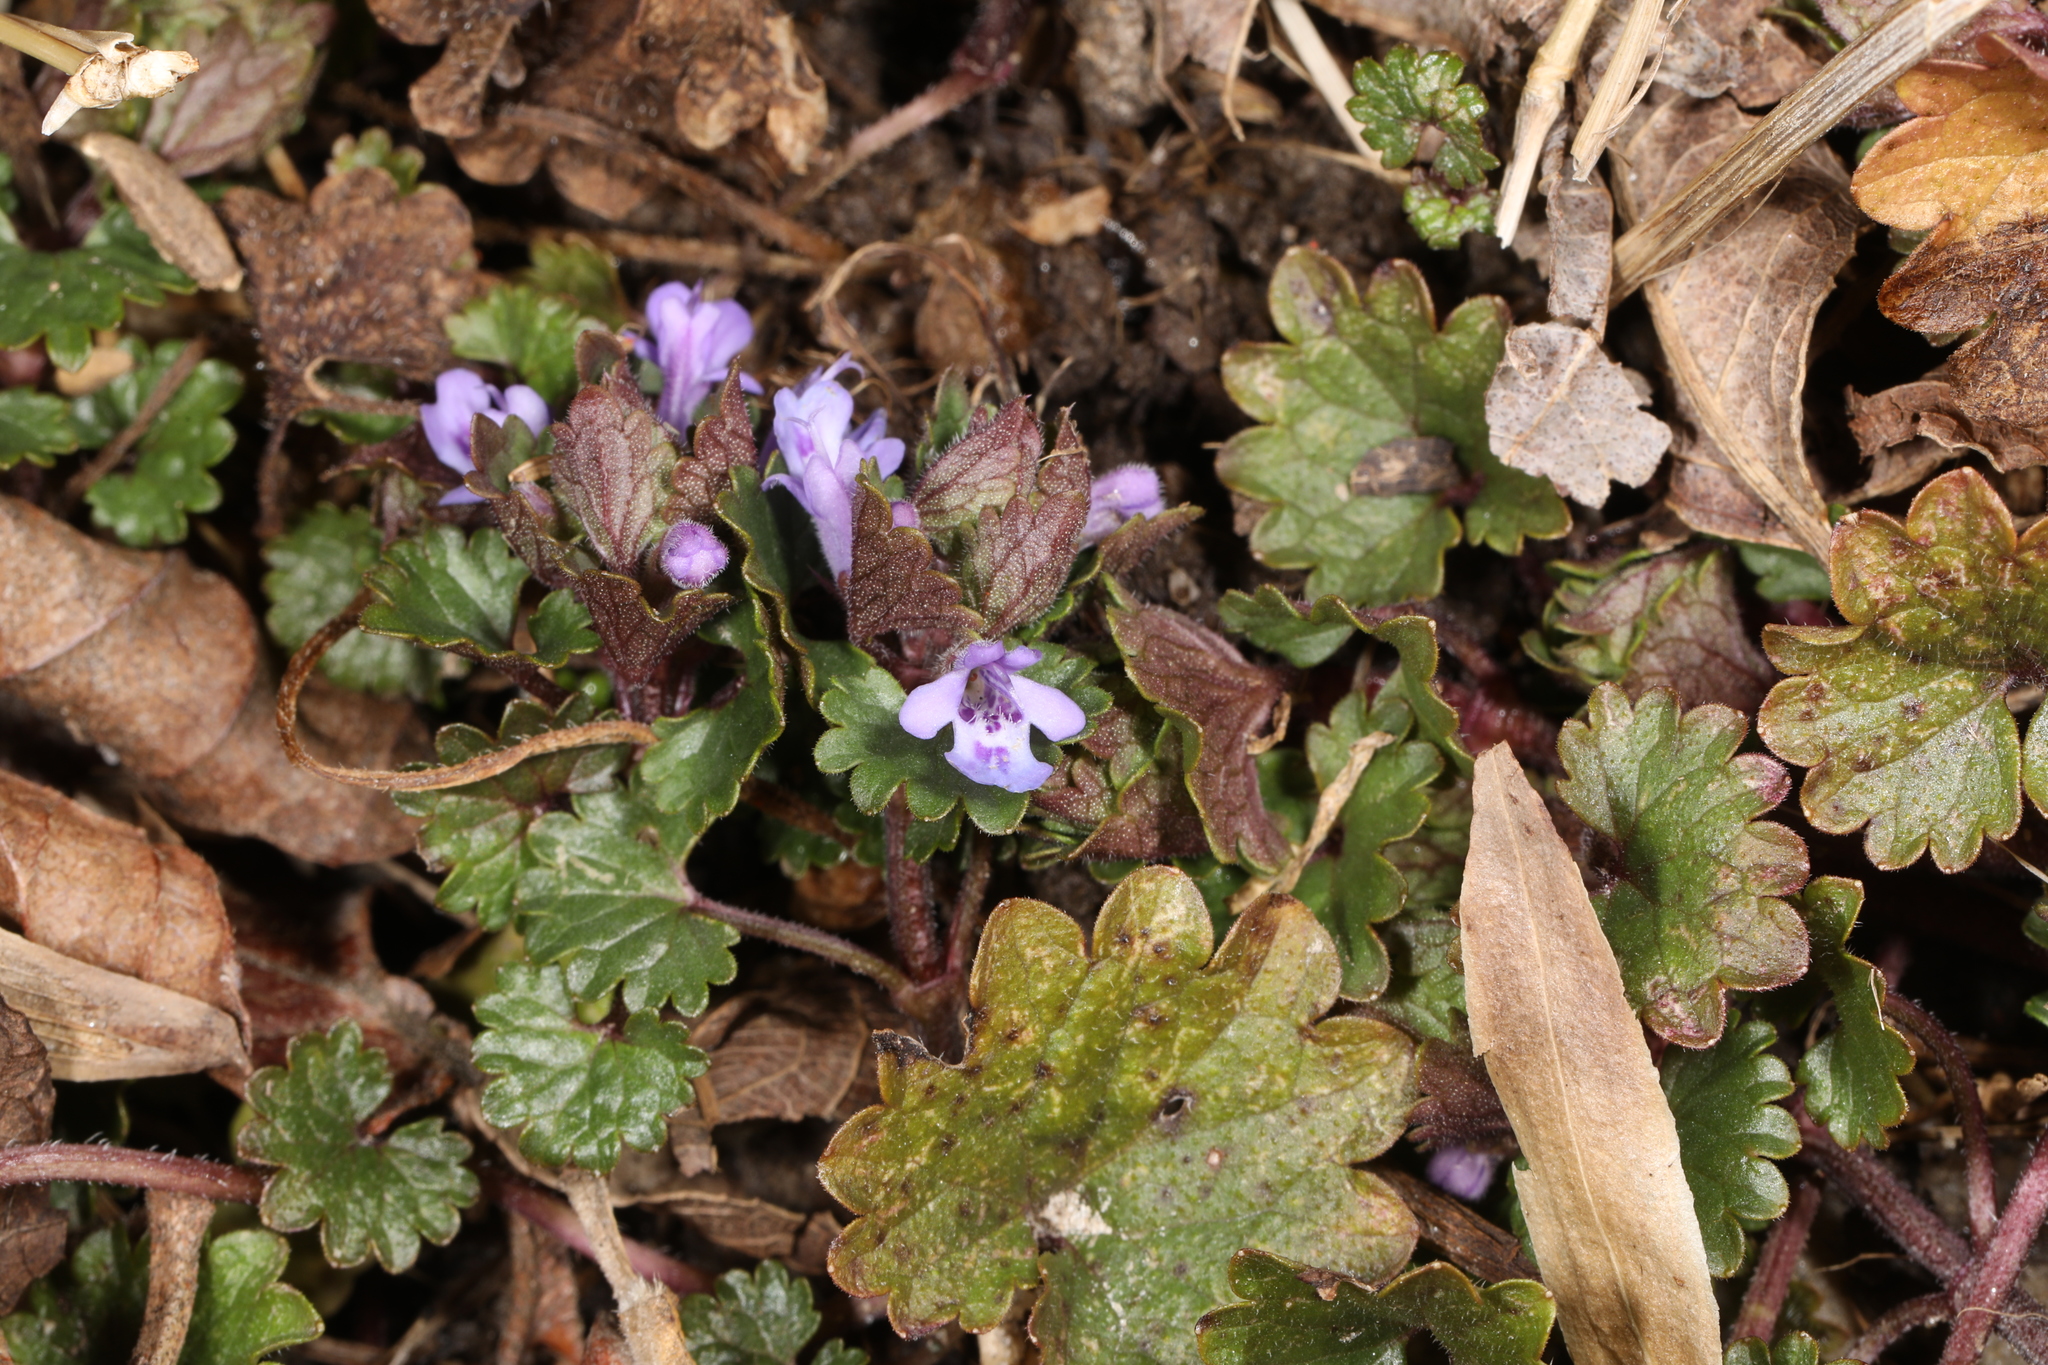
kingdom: Plantae
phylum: Tracheophyta
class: Magnoliopsida
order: Lamiales
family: Lamiaceae
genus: Glechoma
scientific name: Glechoma hederacea
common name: Ground ivy
